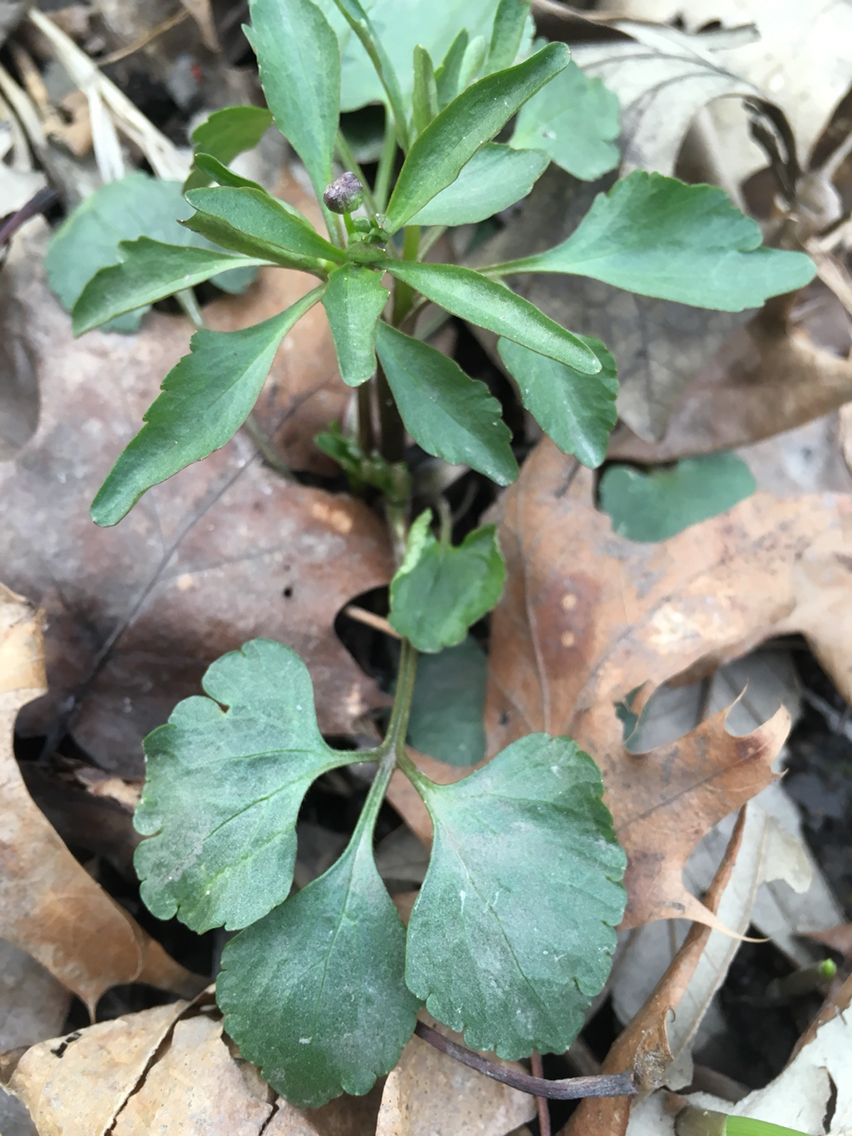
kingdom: Plantae
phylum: Tracheophyta
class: Magnoliopsida
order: Ranunculales
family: Ranunculaceae
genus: Ranunculus
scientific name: Ranunculus abortivus
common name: Early wood buttercup
